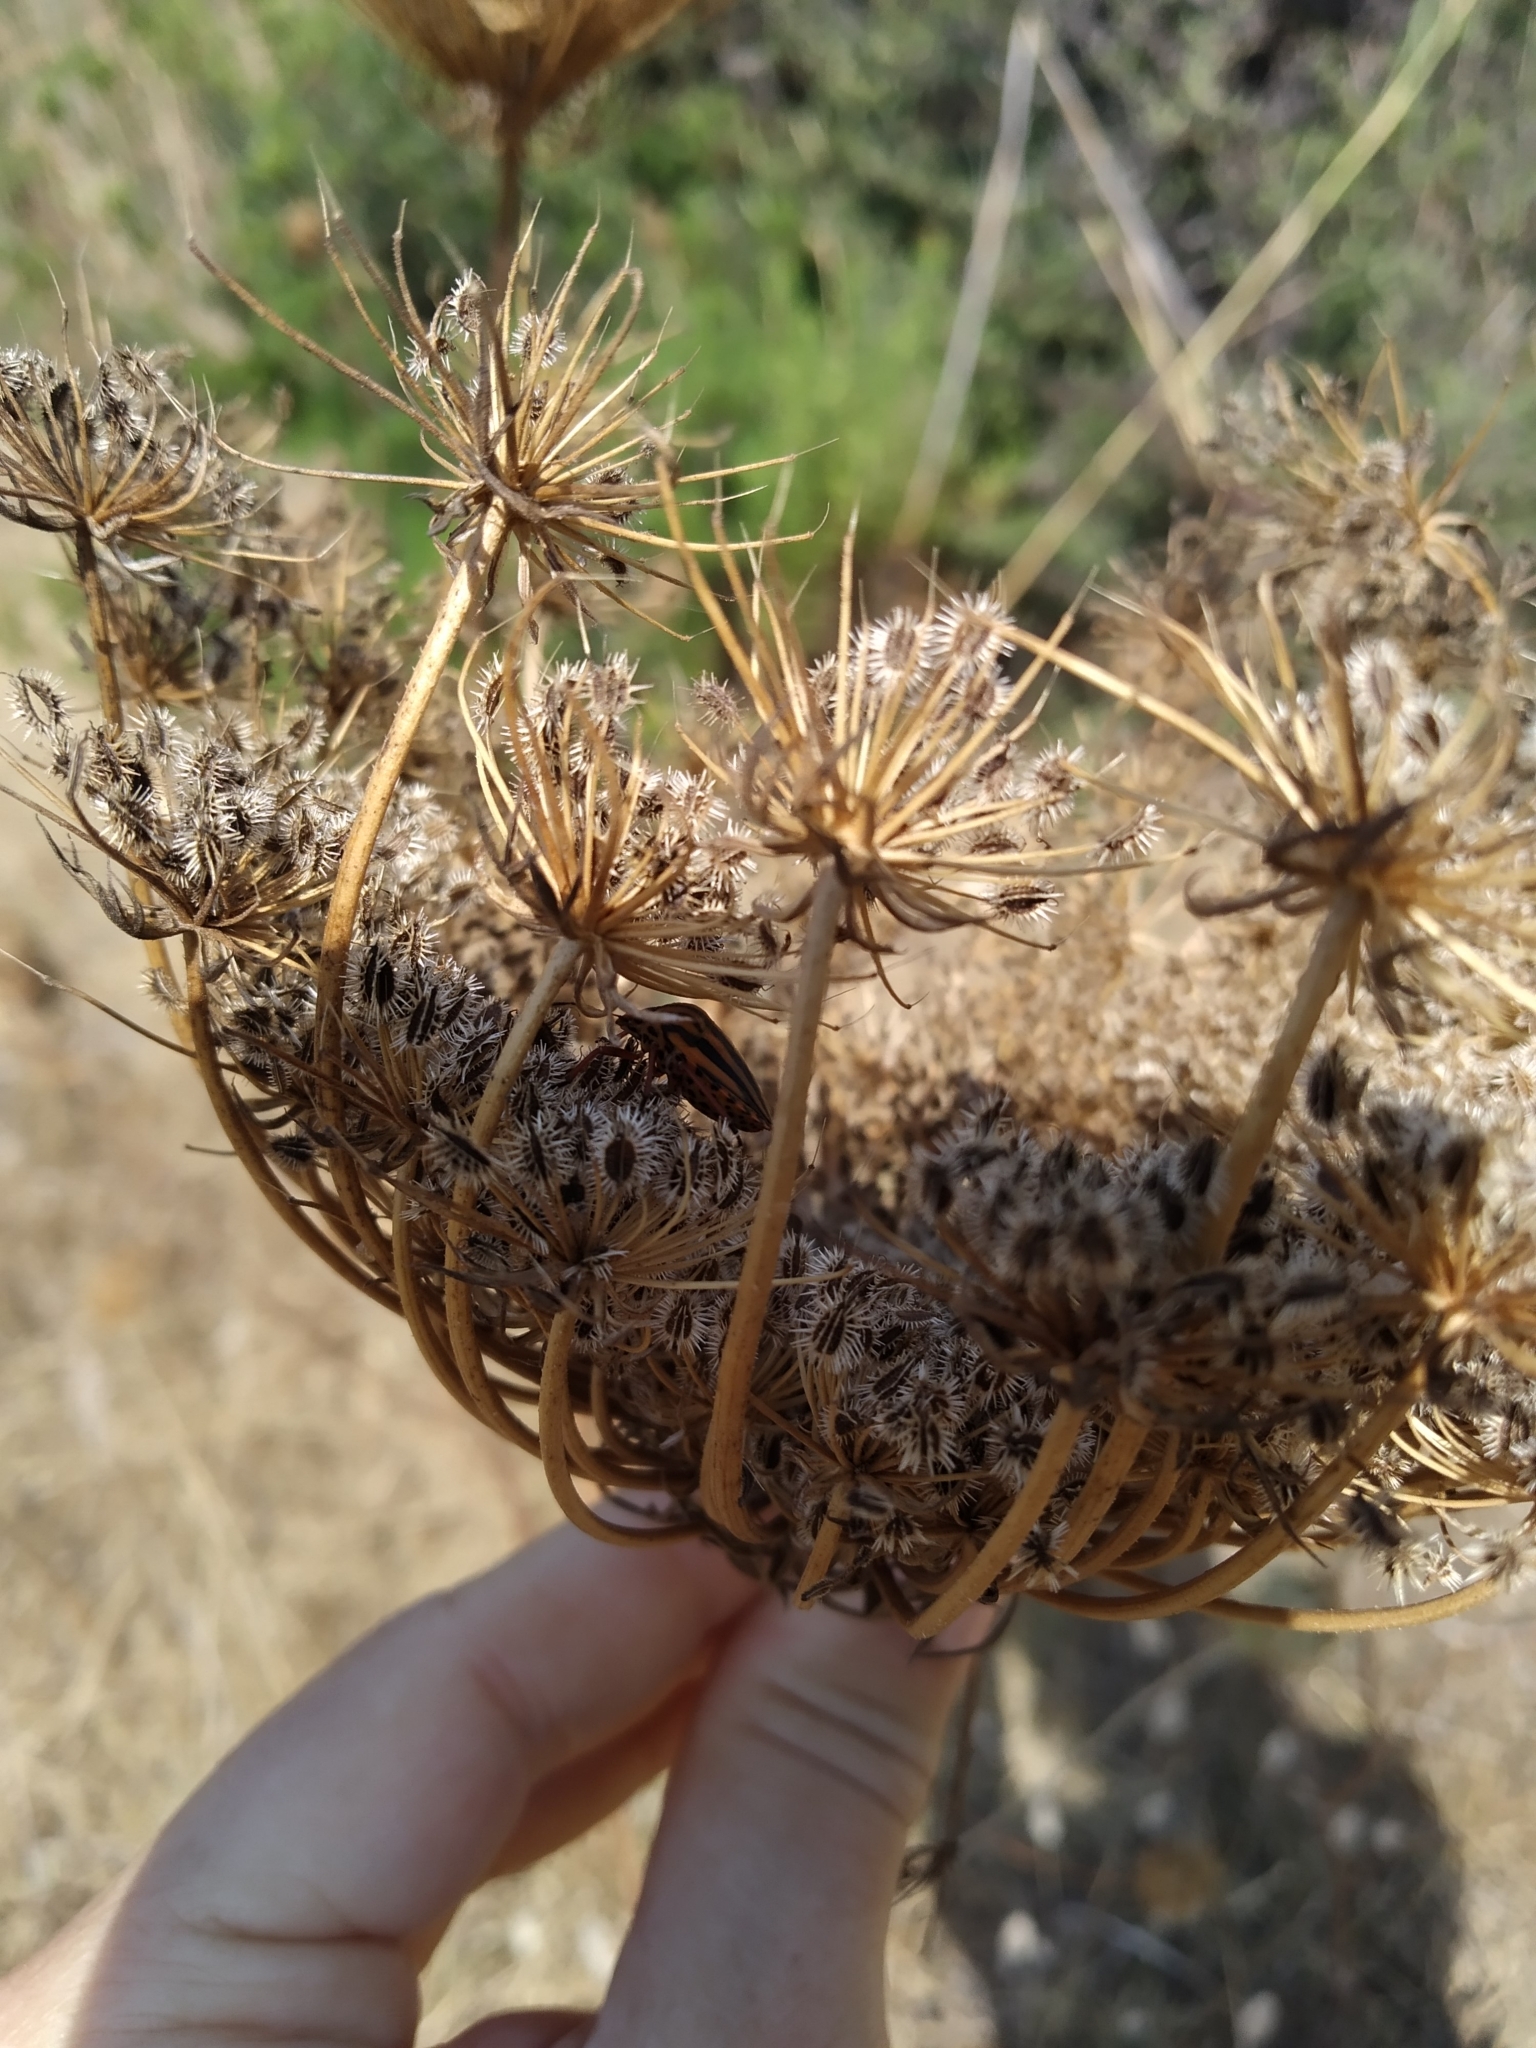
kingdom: Plantae
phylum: Tracheophyta
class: Magnoliopsida
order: Apiales
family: Apiaceae
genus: Daucus
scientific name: Daucus carota
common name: Wild carrot
